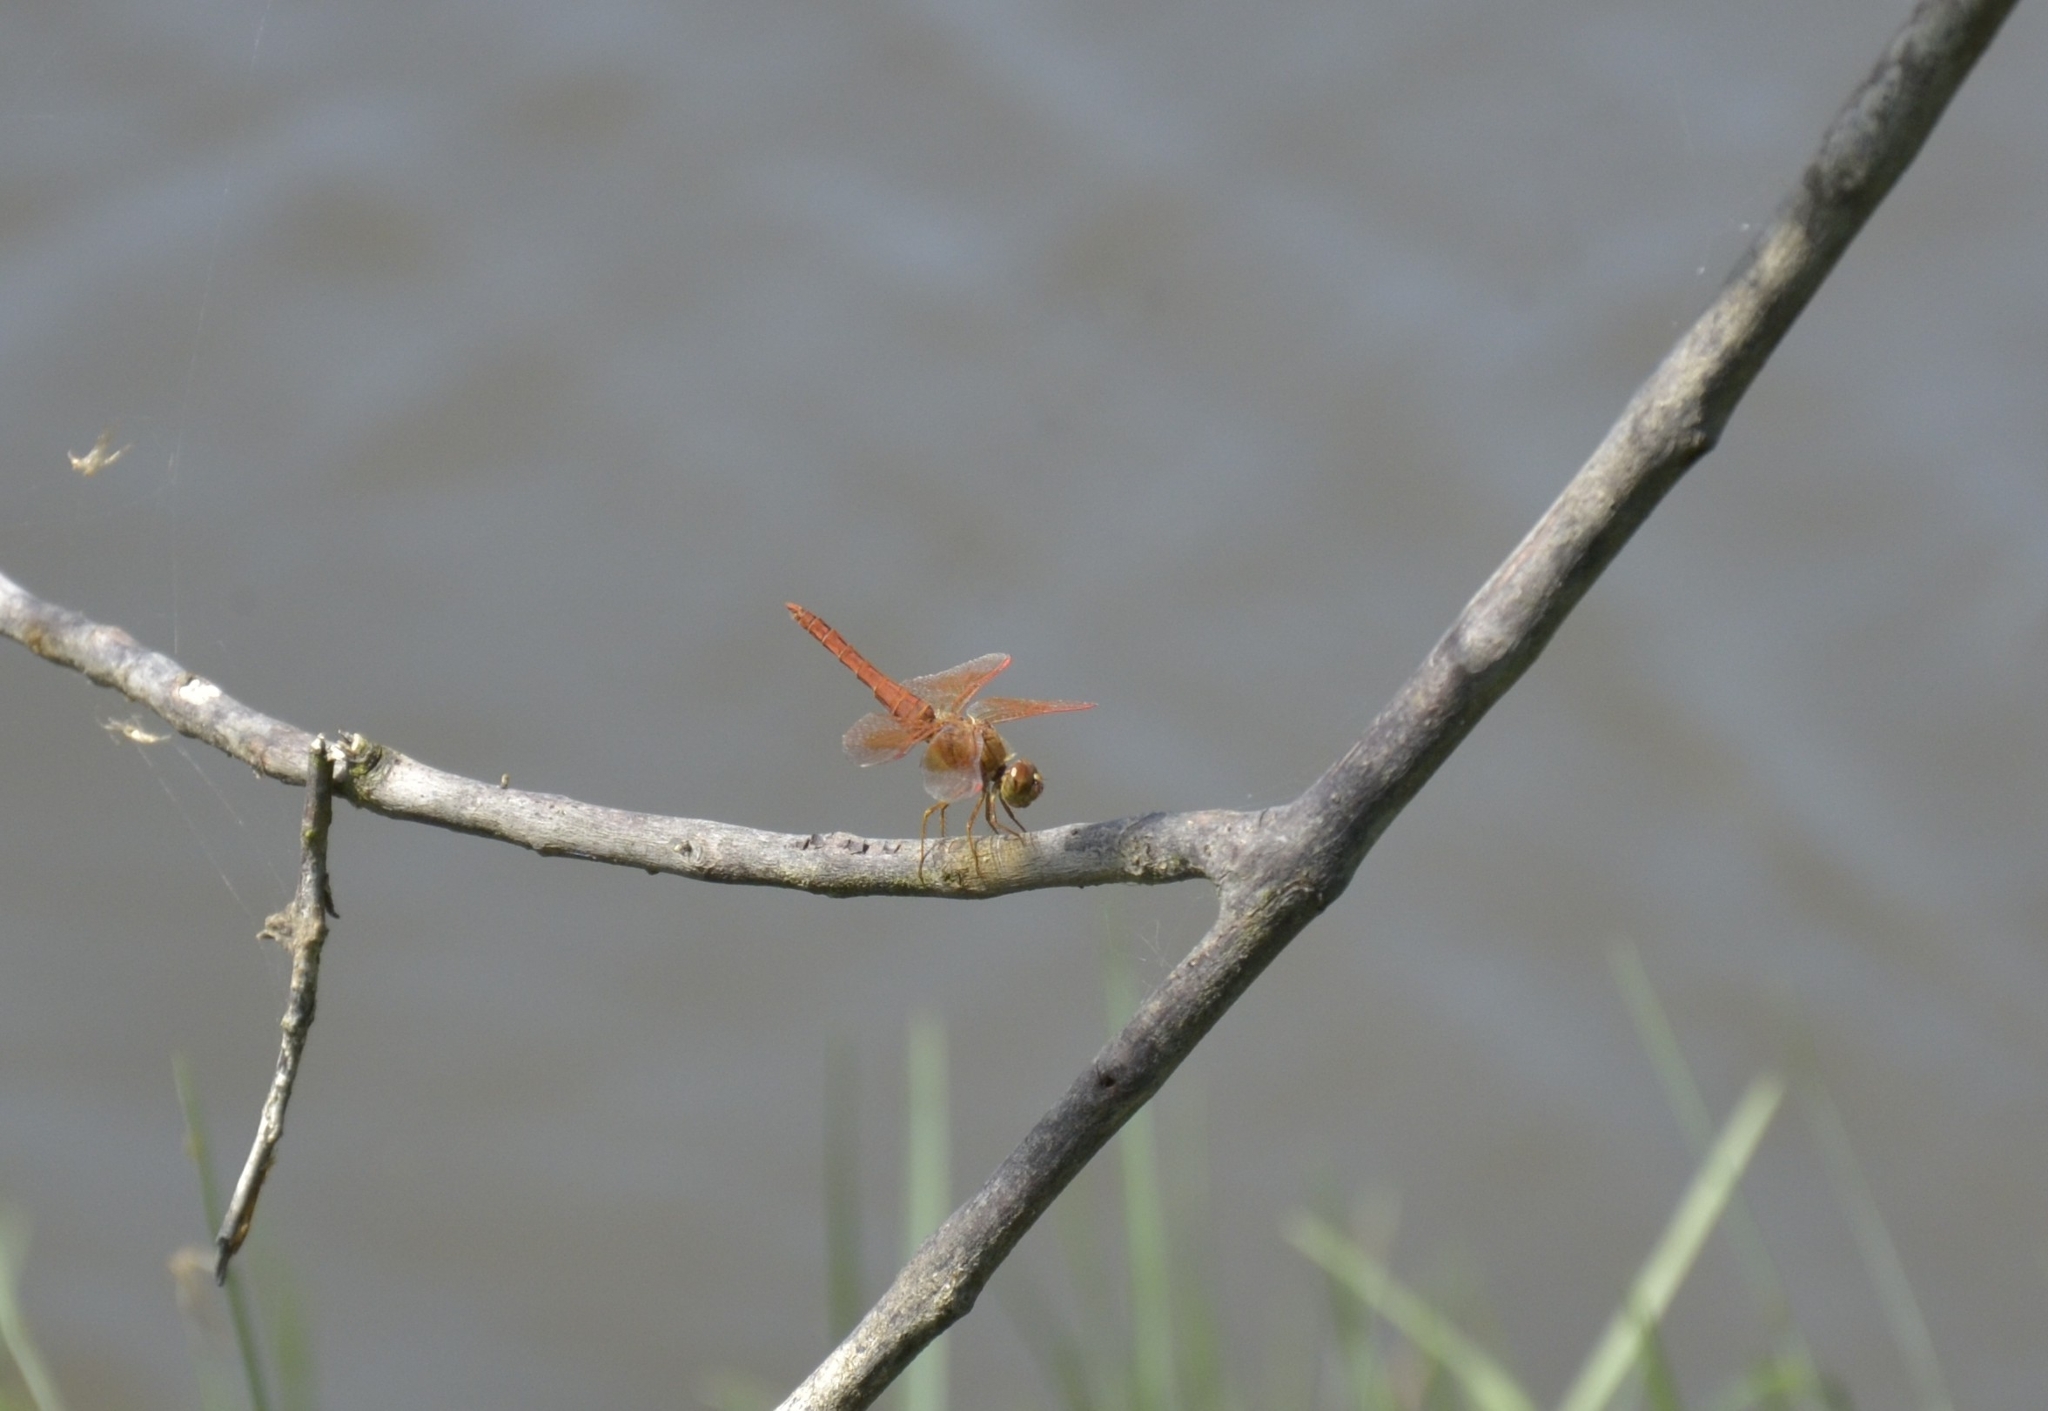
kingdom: Animalia
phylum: Arthropoda
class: Insecta
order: Odonata
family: Libellulidae
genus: Brachythemis
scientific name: Brachythemis contaminata
